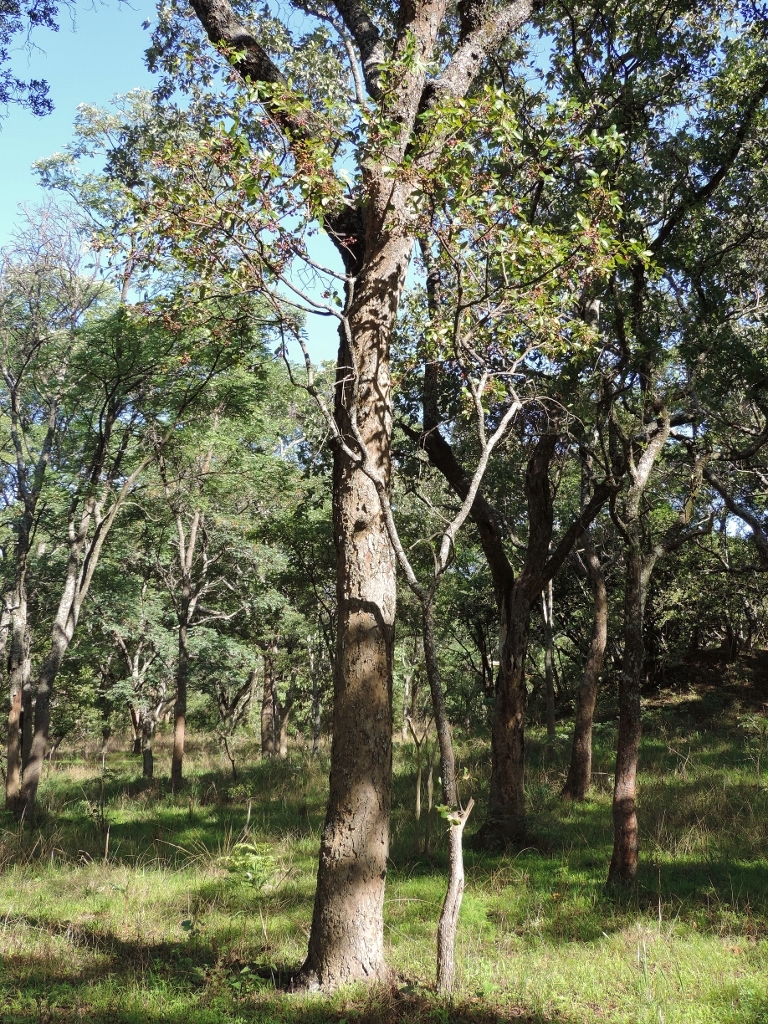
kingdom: Plantae
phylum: Tracheophyta
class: Magnoliopsida
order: Malpighiales
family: Ochnaceae
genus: Ochna
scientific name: Ochna schweinfurthiana
